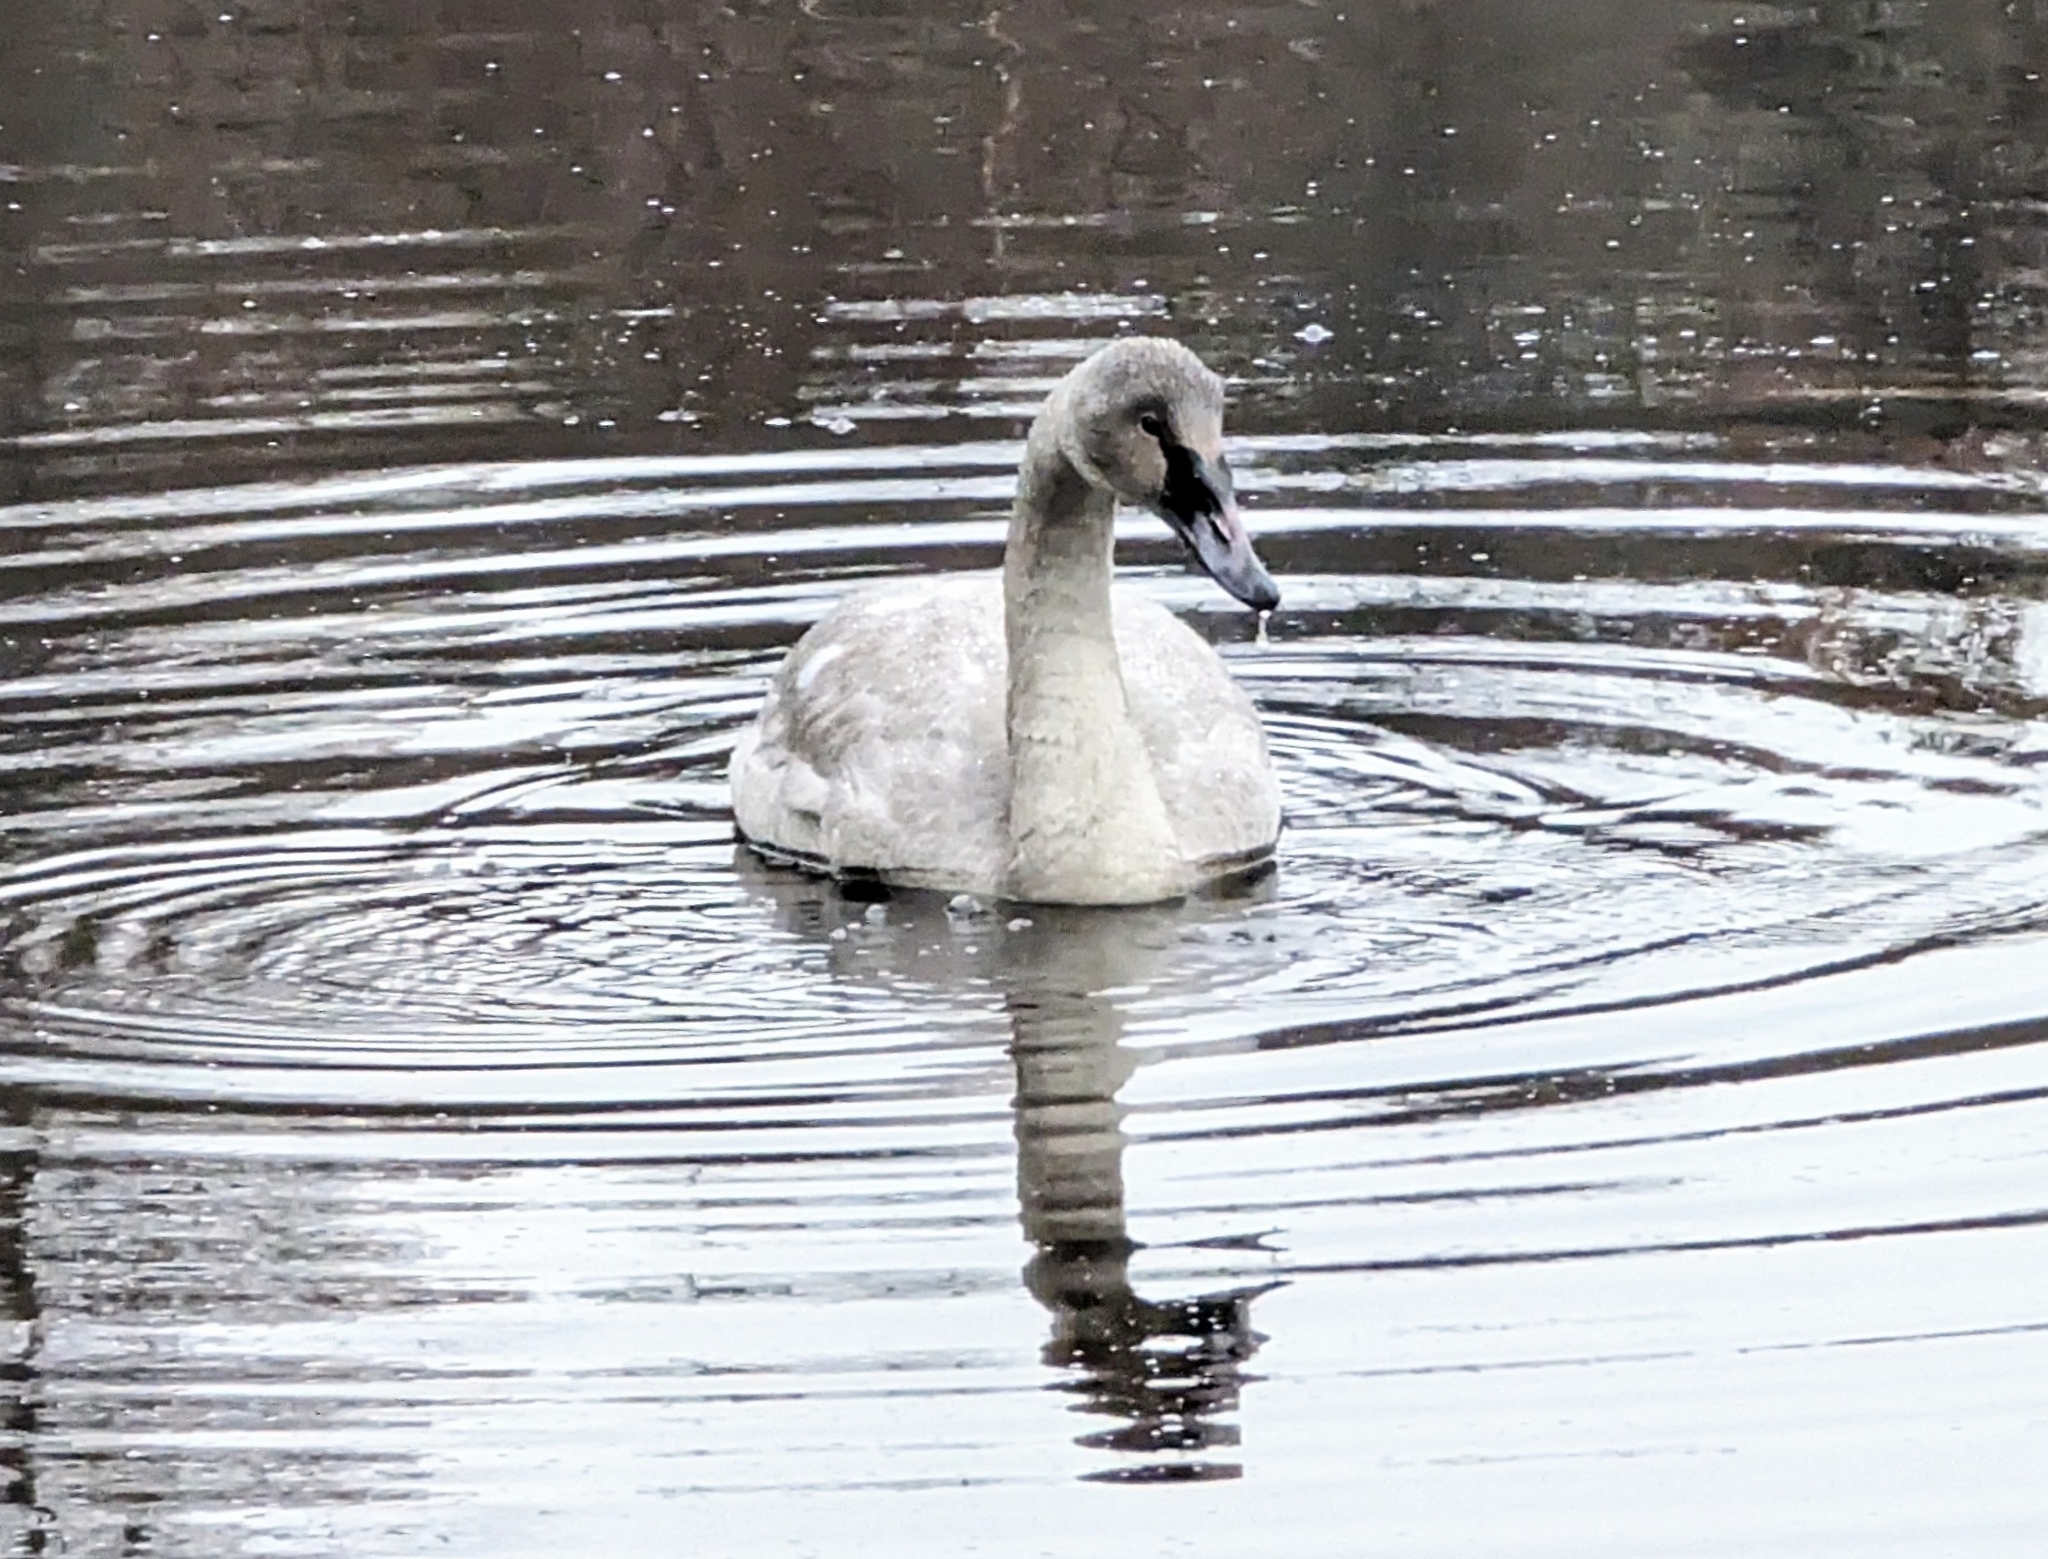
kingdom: Animalia
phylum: Chordata
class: Aves
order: Anseriformes
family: Anatidae
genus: Cygnus
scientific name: Cygnus buccinator
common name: Trumpeter swan
